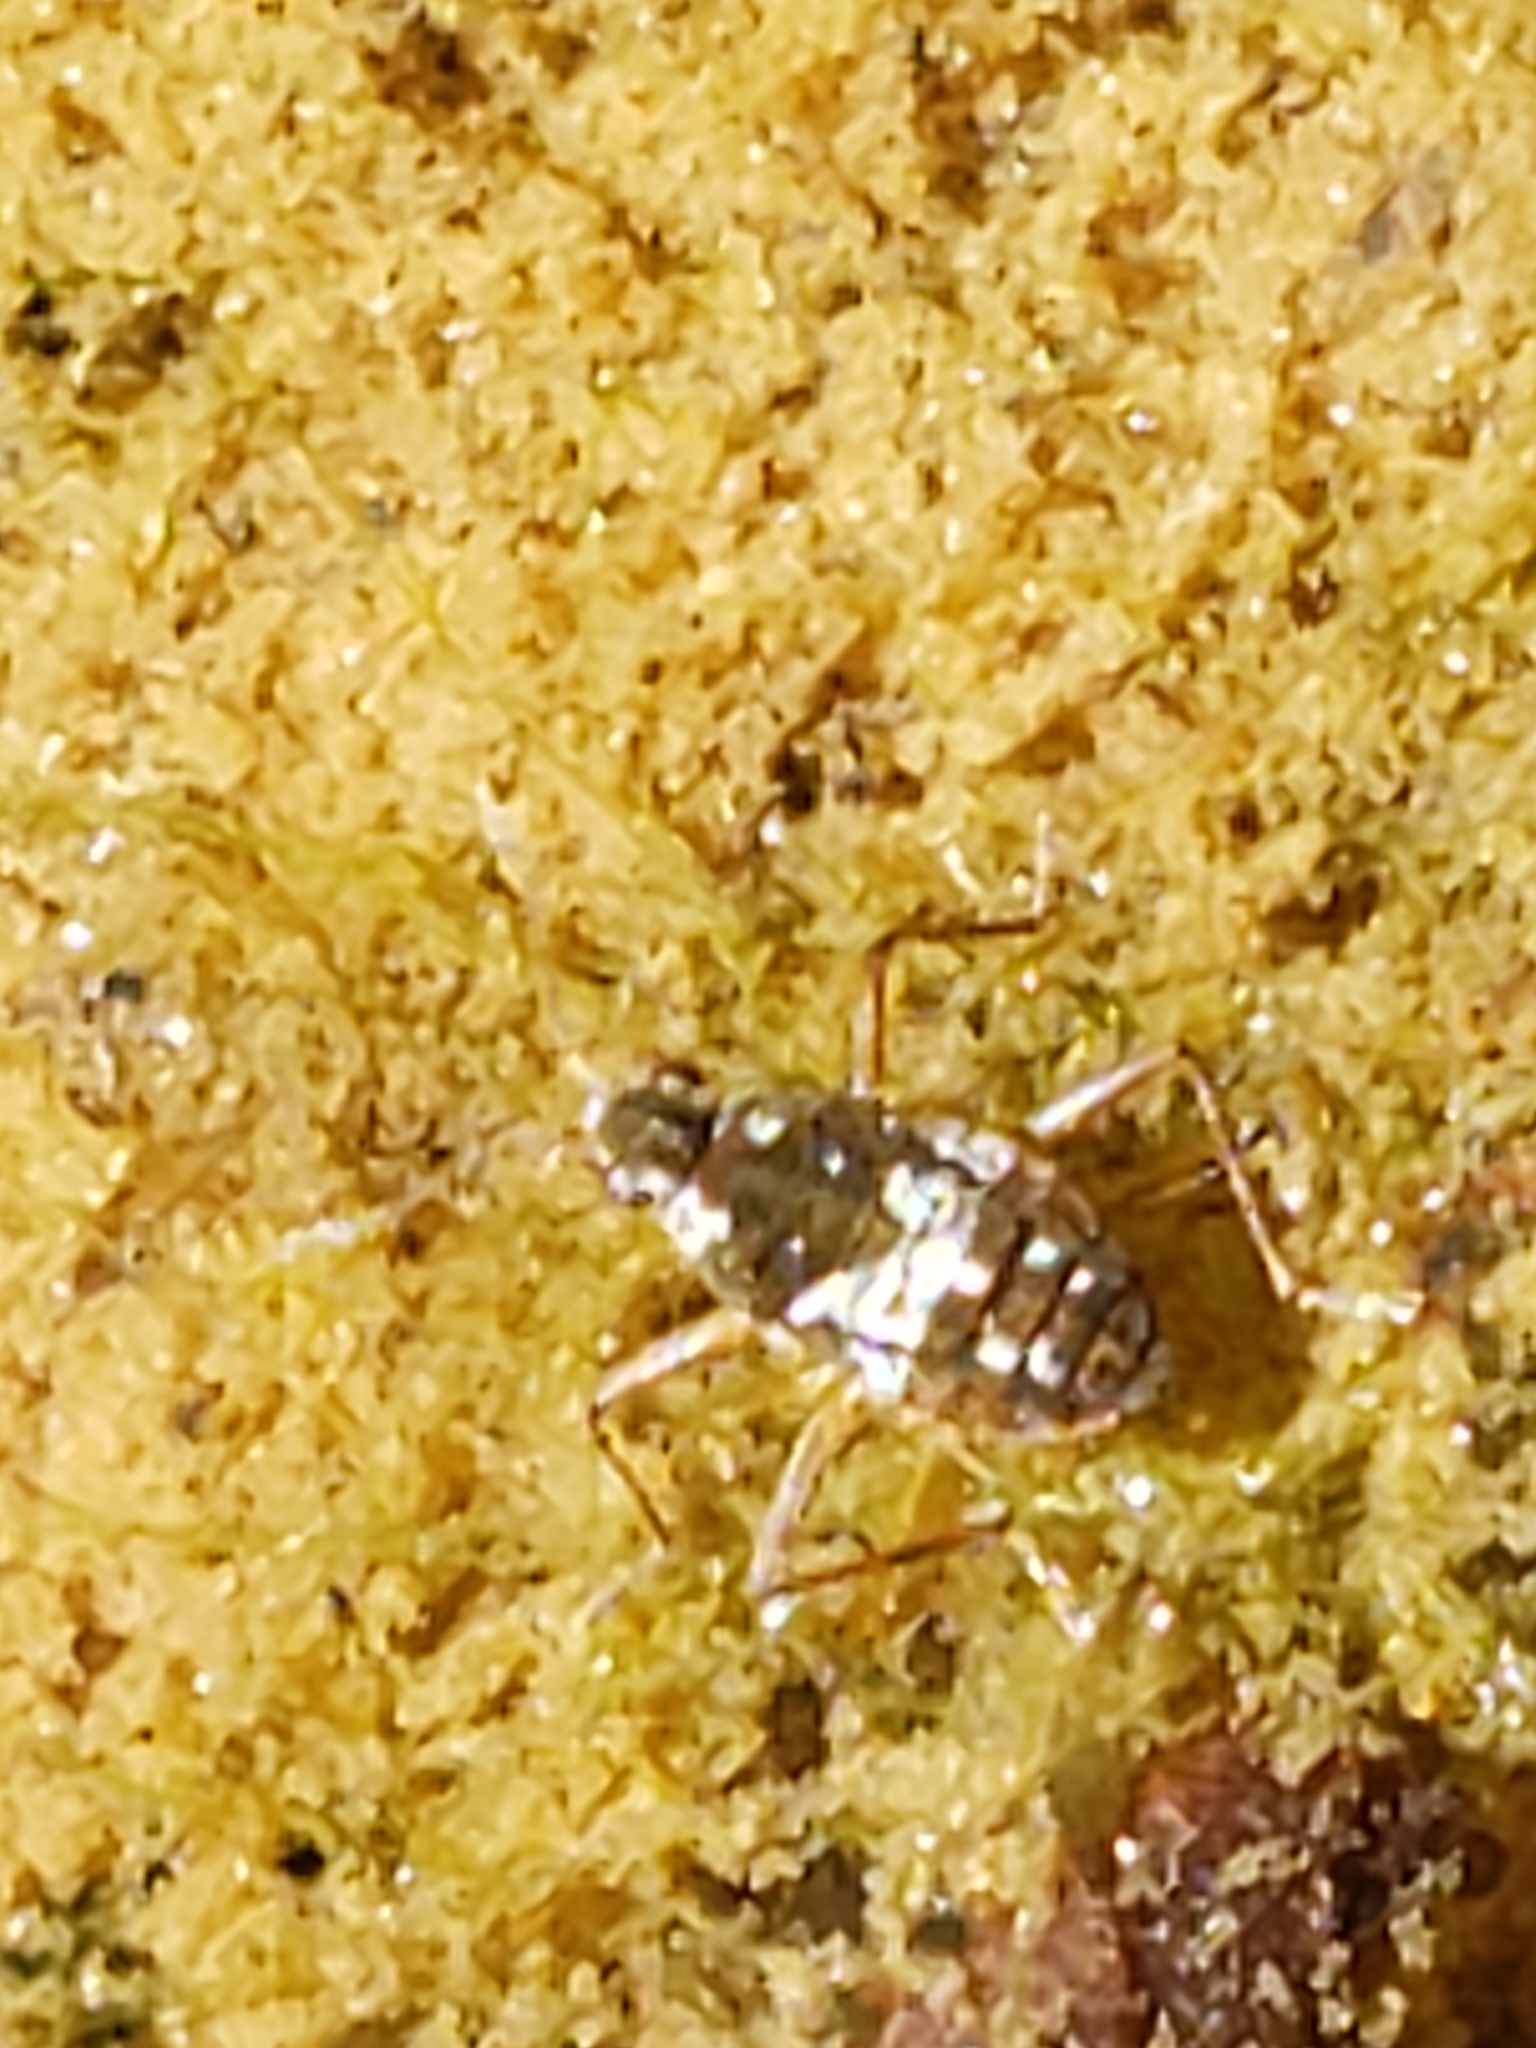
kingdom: Animalia
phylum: Arthropoda
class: Insecta
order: Hemiptera
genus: Kirkaldya
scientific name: Kirkaldya
